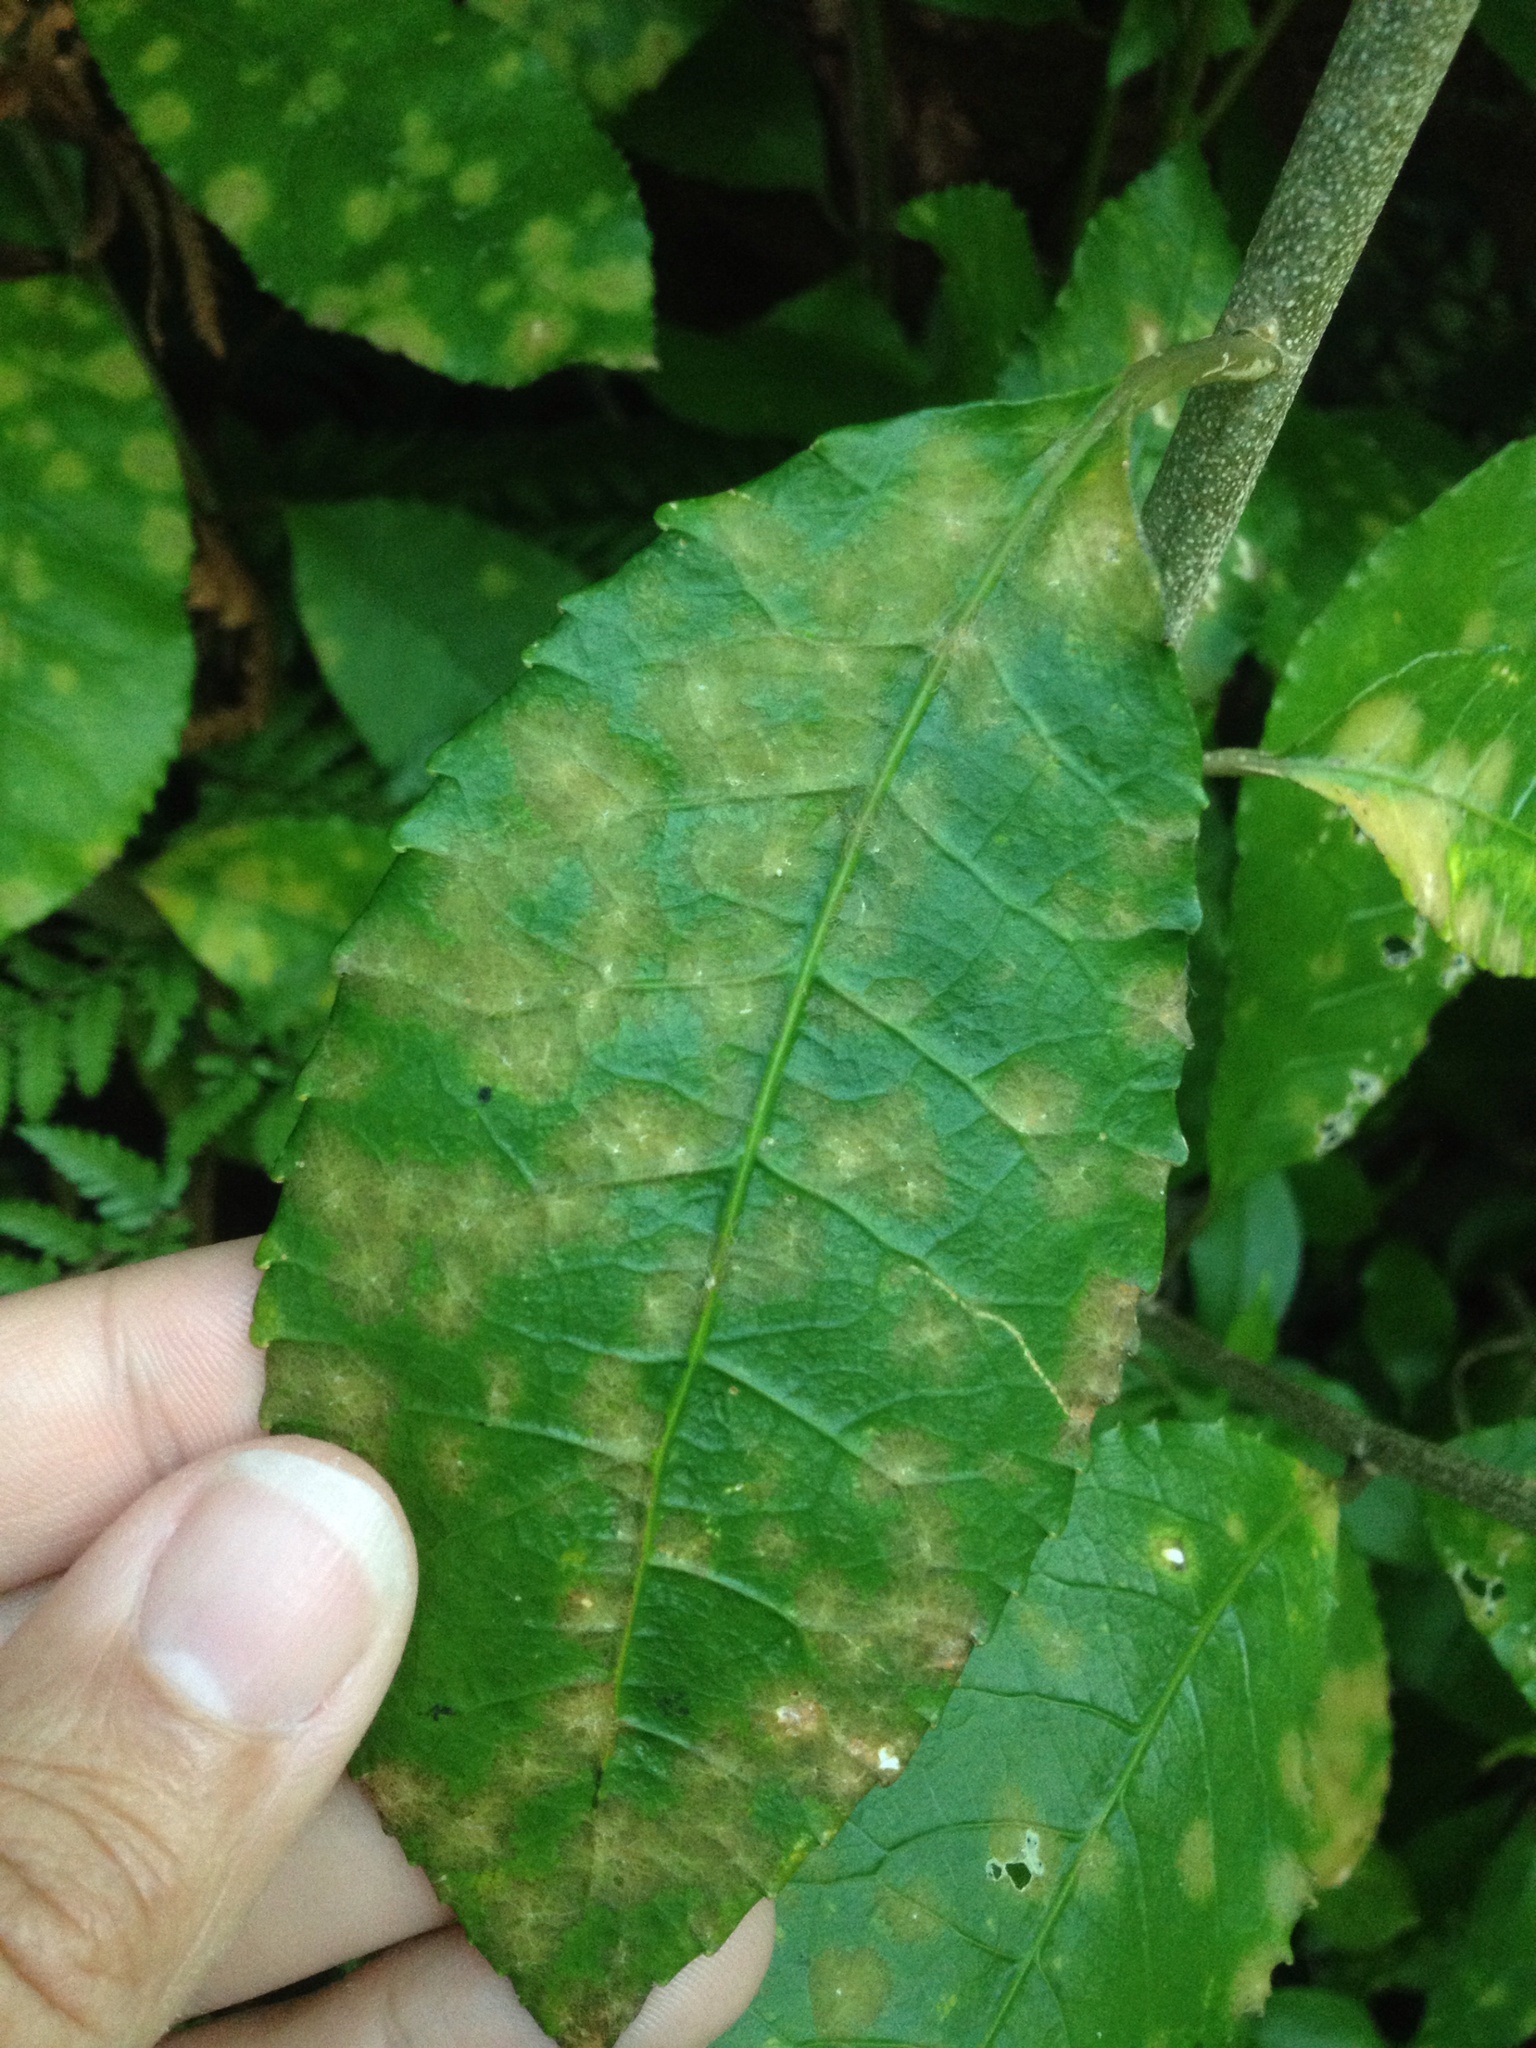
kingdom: Plantae
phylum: Chlorophyta
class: Ulvophyceae
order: Trentepohliales
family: Trentepohliaceae
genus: Cephaleuros
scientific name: Cephaleuros
